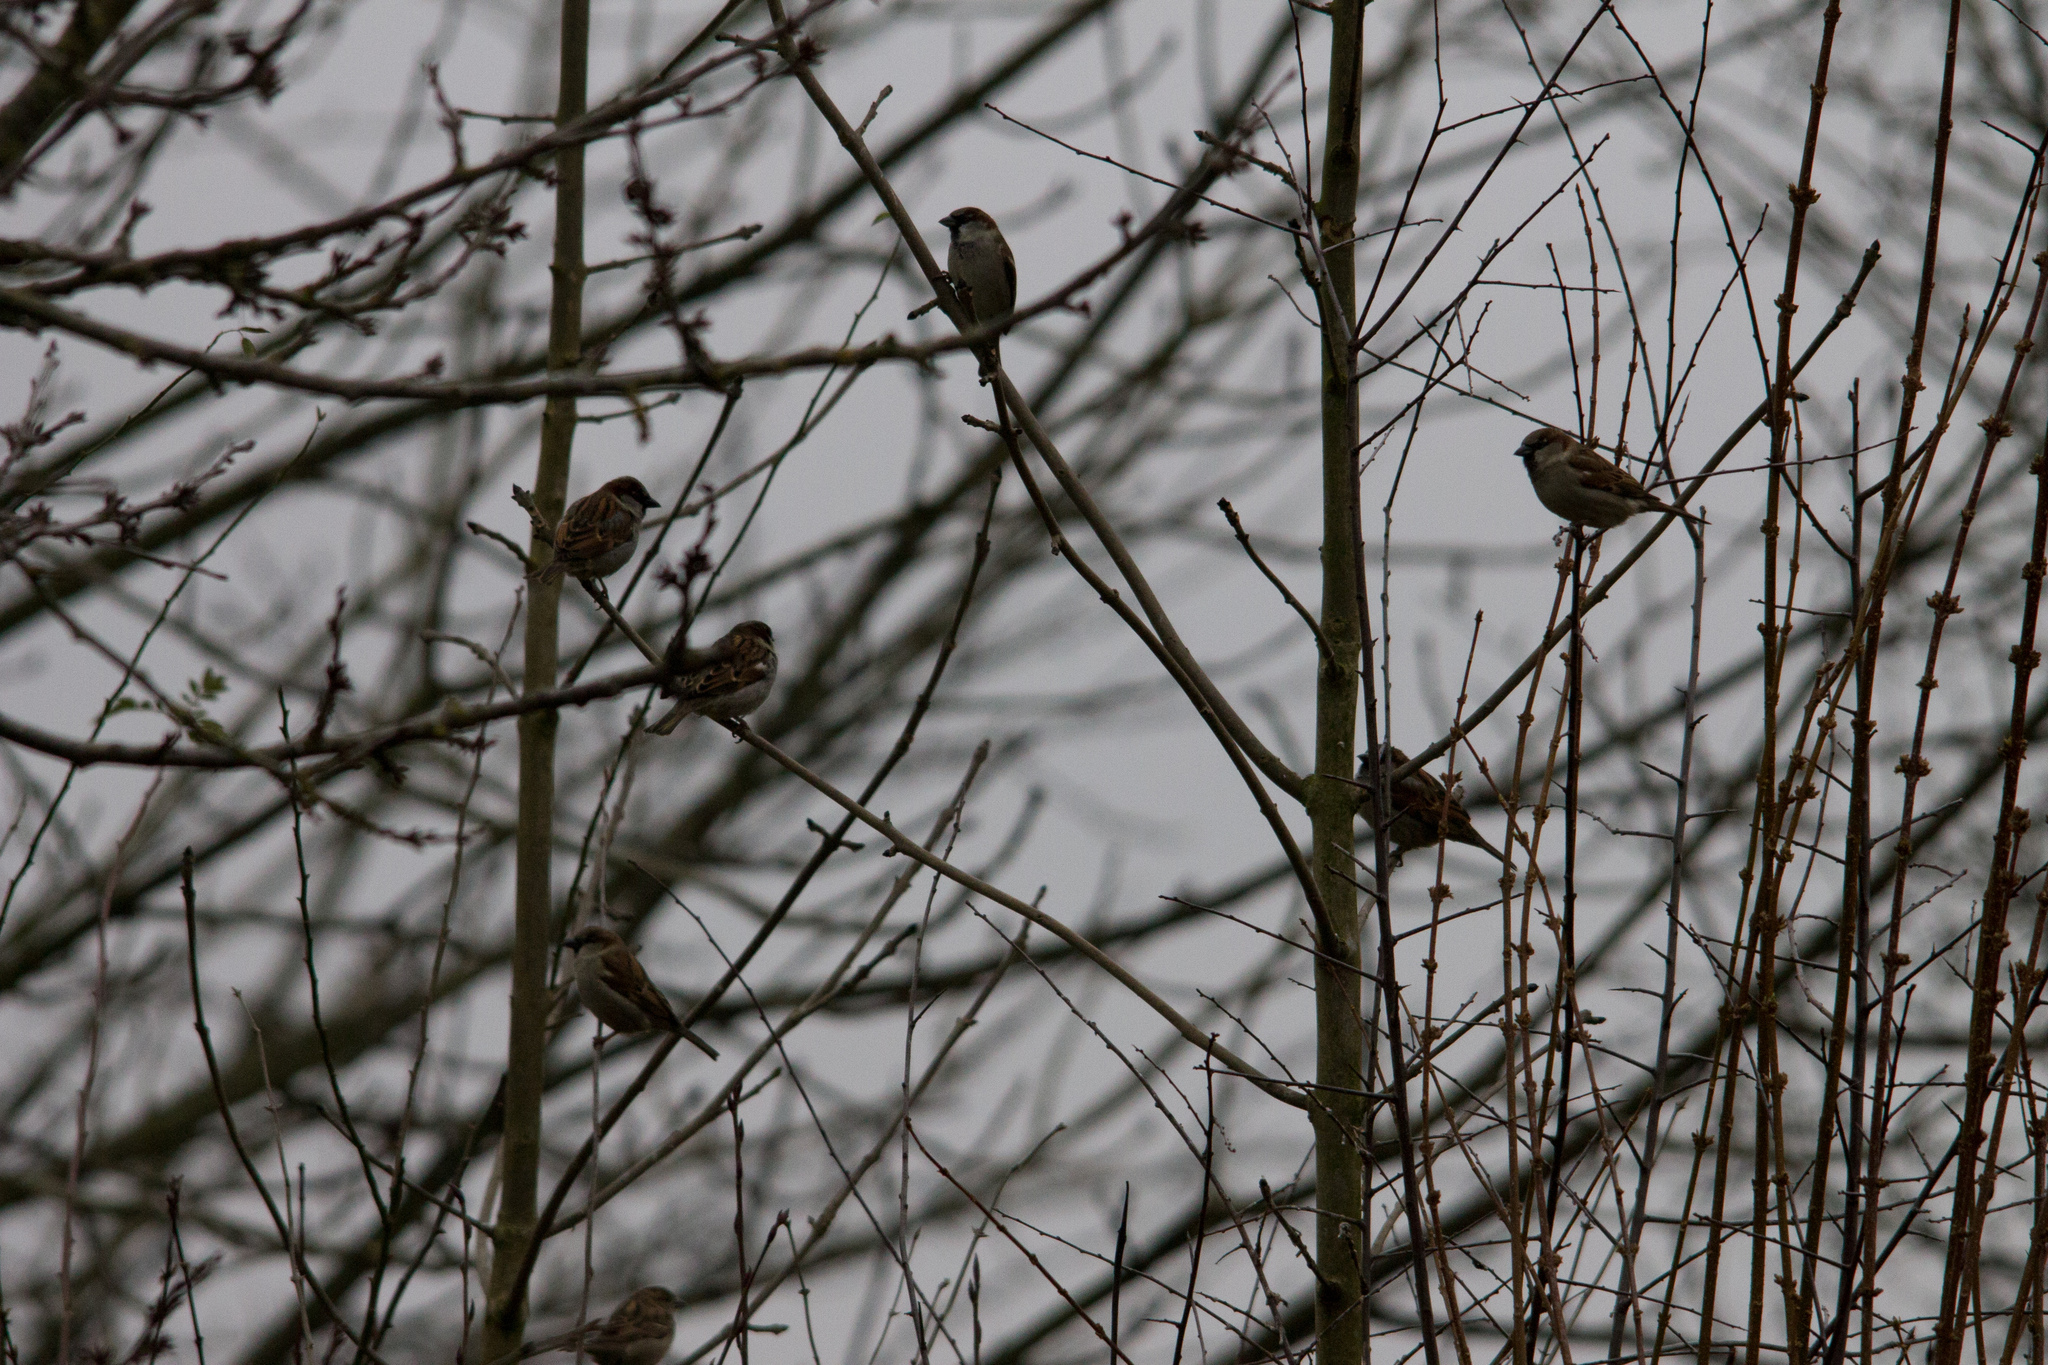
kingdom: Animalia
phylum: Chordata
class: Aves
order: Passeriformes
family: Passeridae
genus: Passer
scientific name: Passer domesticus
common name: House sparrow
